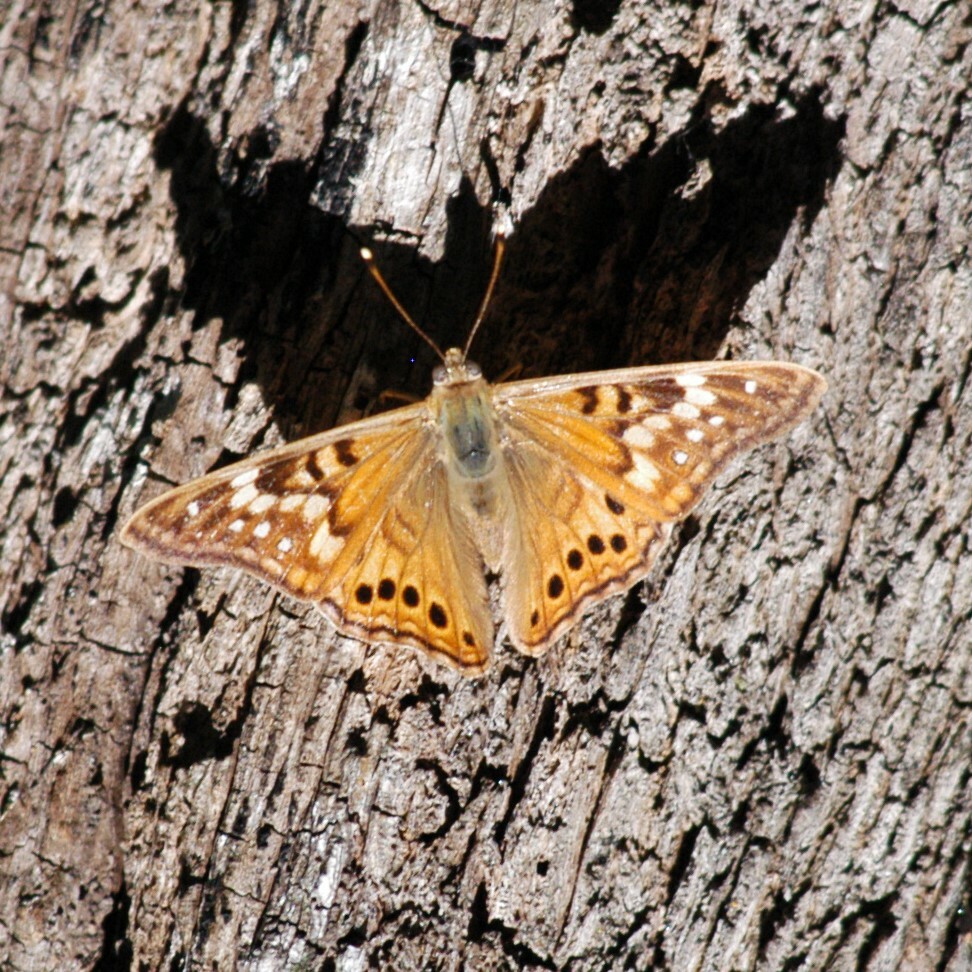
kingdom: Animalia
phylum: Arthropoda
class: Insecta
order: Lepidoptera
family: Nymphalidae
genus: Asterocampa
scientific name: Asterocampa clyton
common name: Tawny emperor
